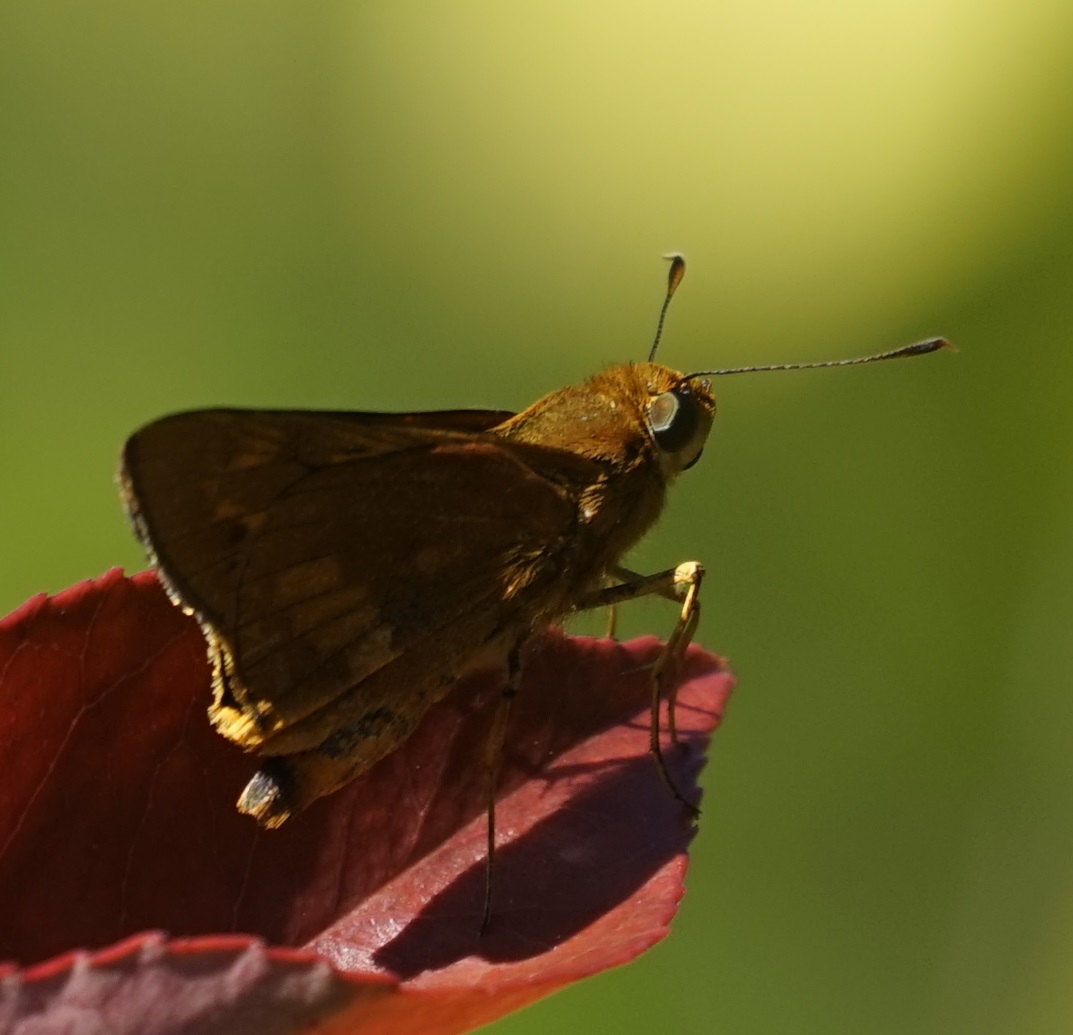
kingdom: Animalia
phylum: Arthropoda
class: Insecta
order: Lepidoptera
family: Hesperiidae
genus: Cephrenes
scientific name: Cephrenes augiades
